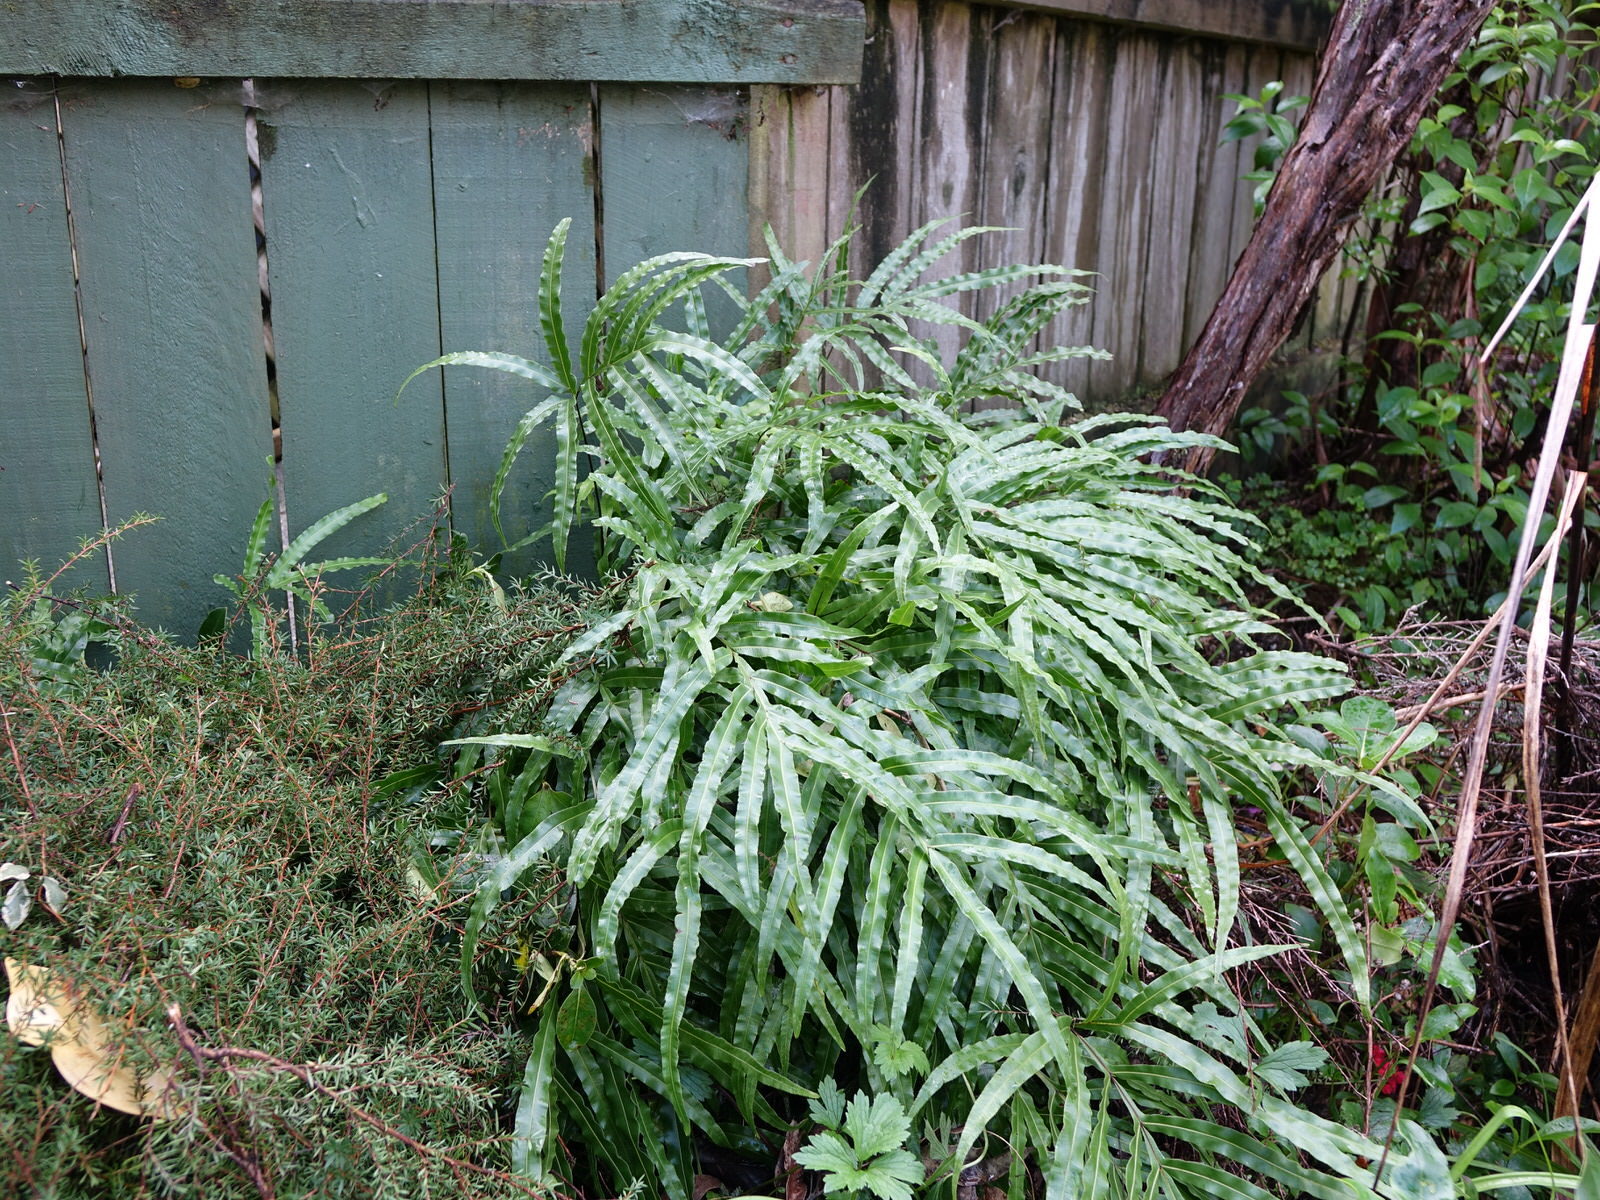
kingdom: Plantae
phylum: Tracheophyta
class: Polypodiopsida
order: Polypodiales
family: Pteridaceae
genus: Pteris
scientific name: Pteris cretica
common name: Ribbon fern
